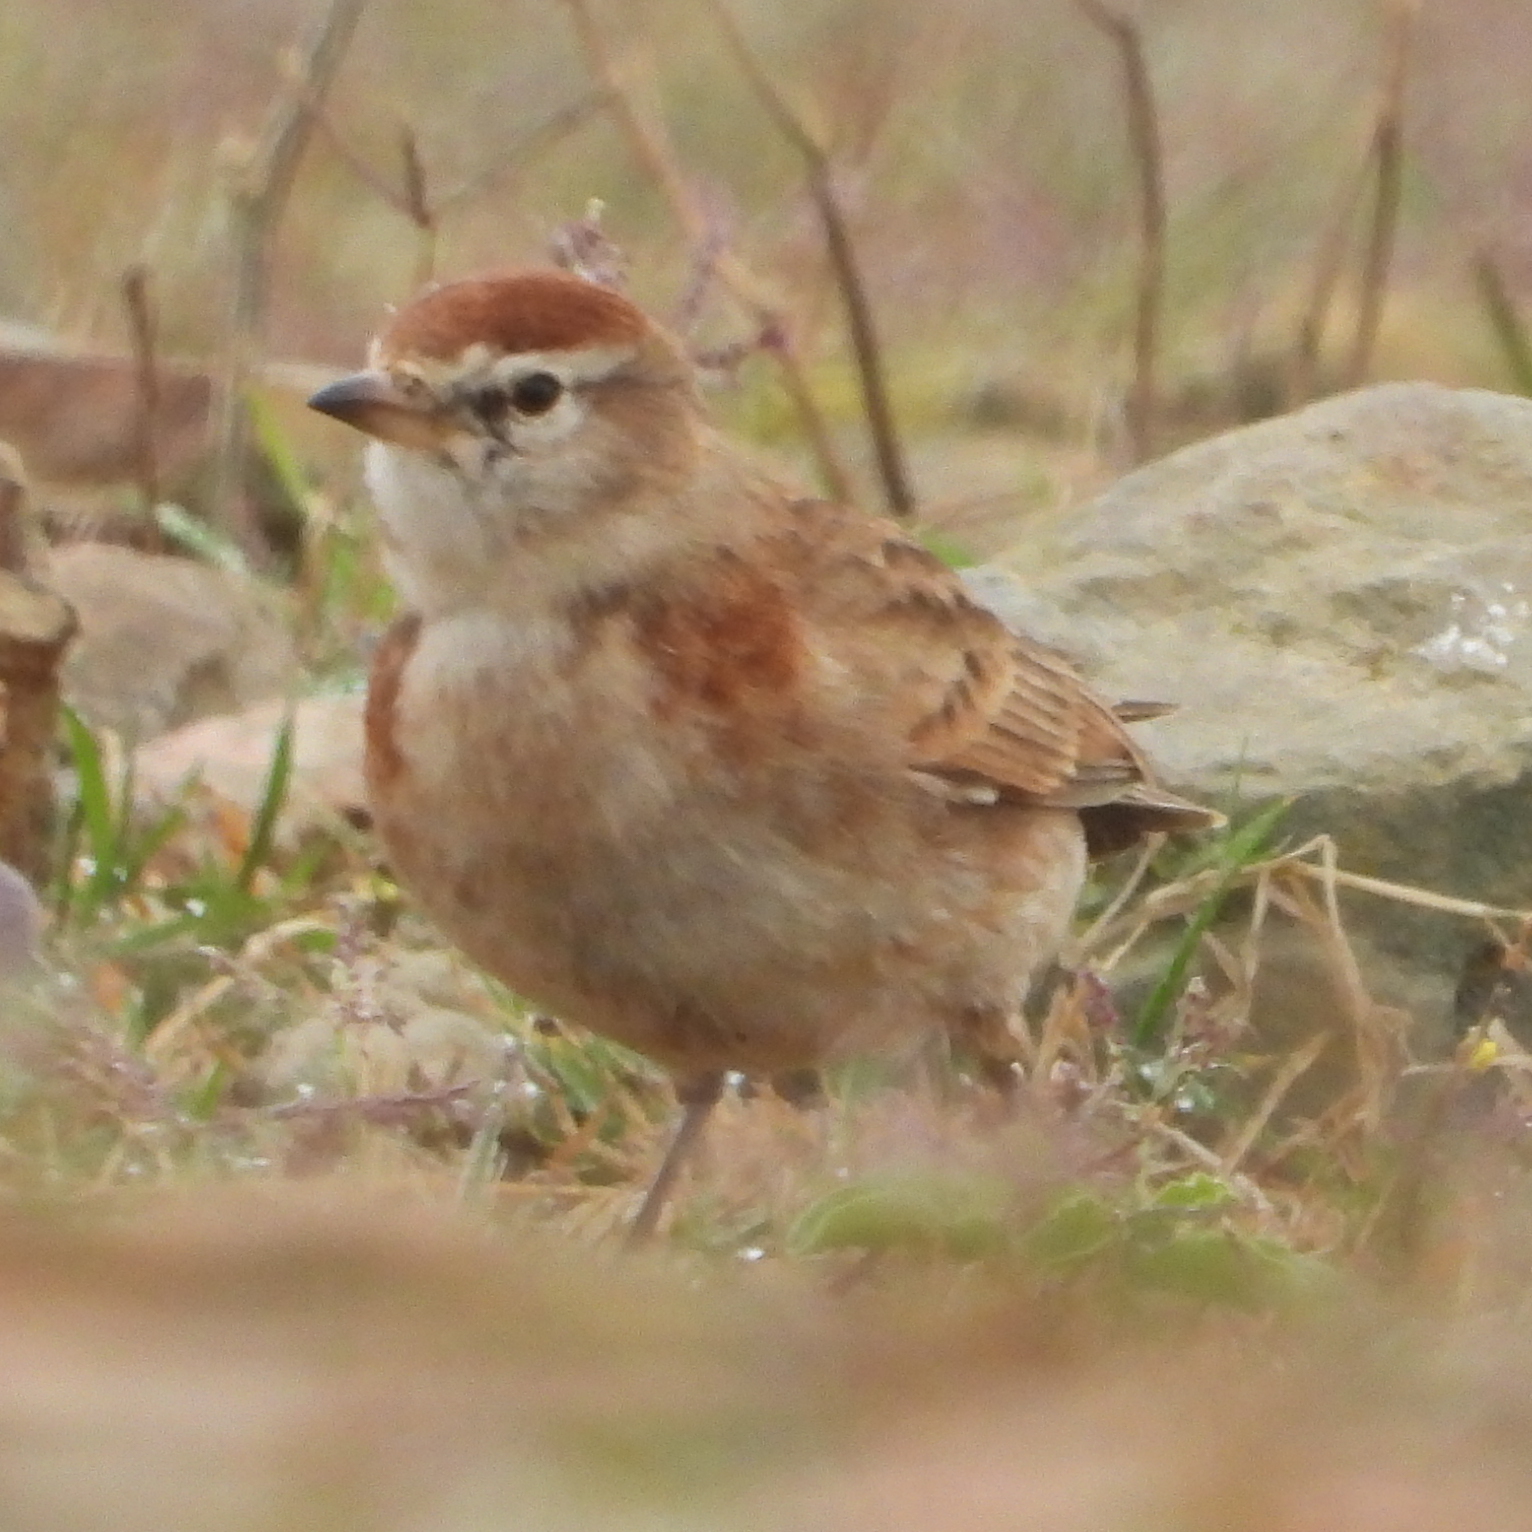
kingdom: Animalia
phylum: Chordata
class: Aves
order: Passeriformes
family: Alaudidae
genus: Calandrella
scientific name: Calandrella cinerea
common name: Red-capped lark
